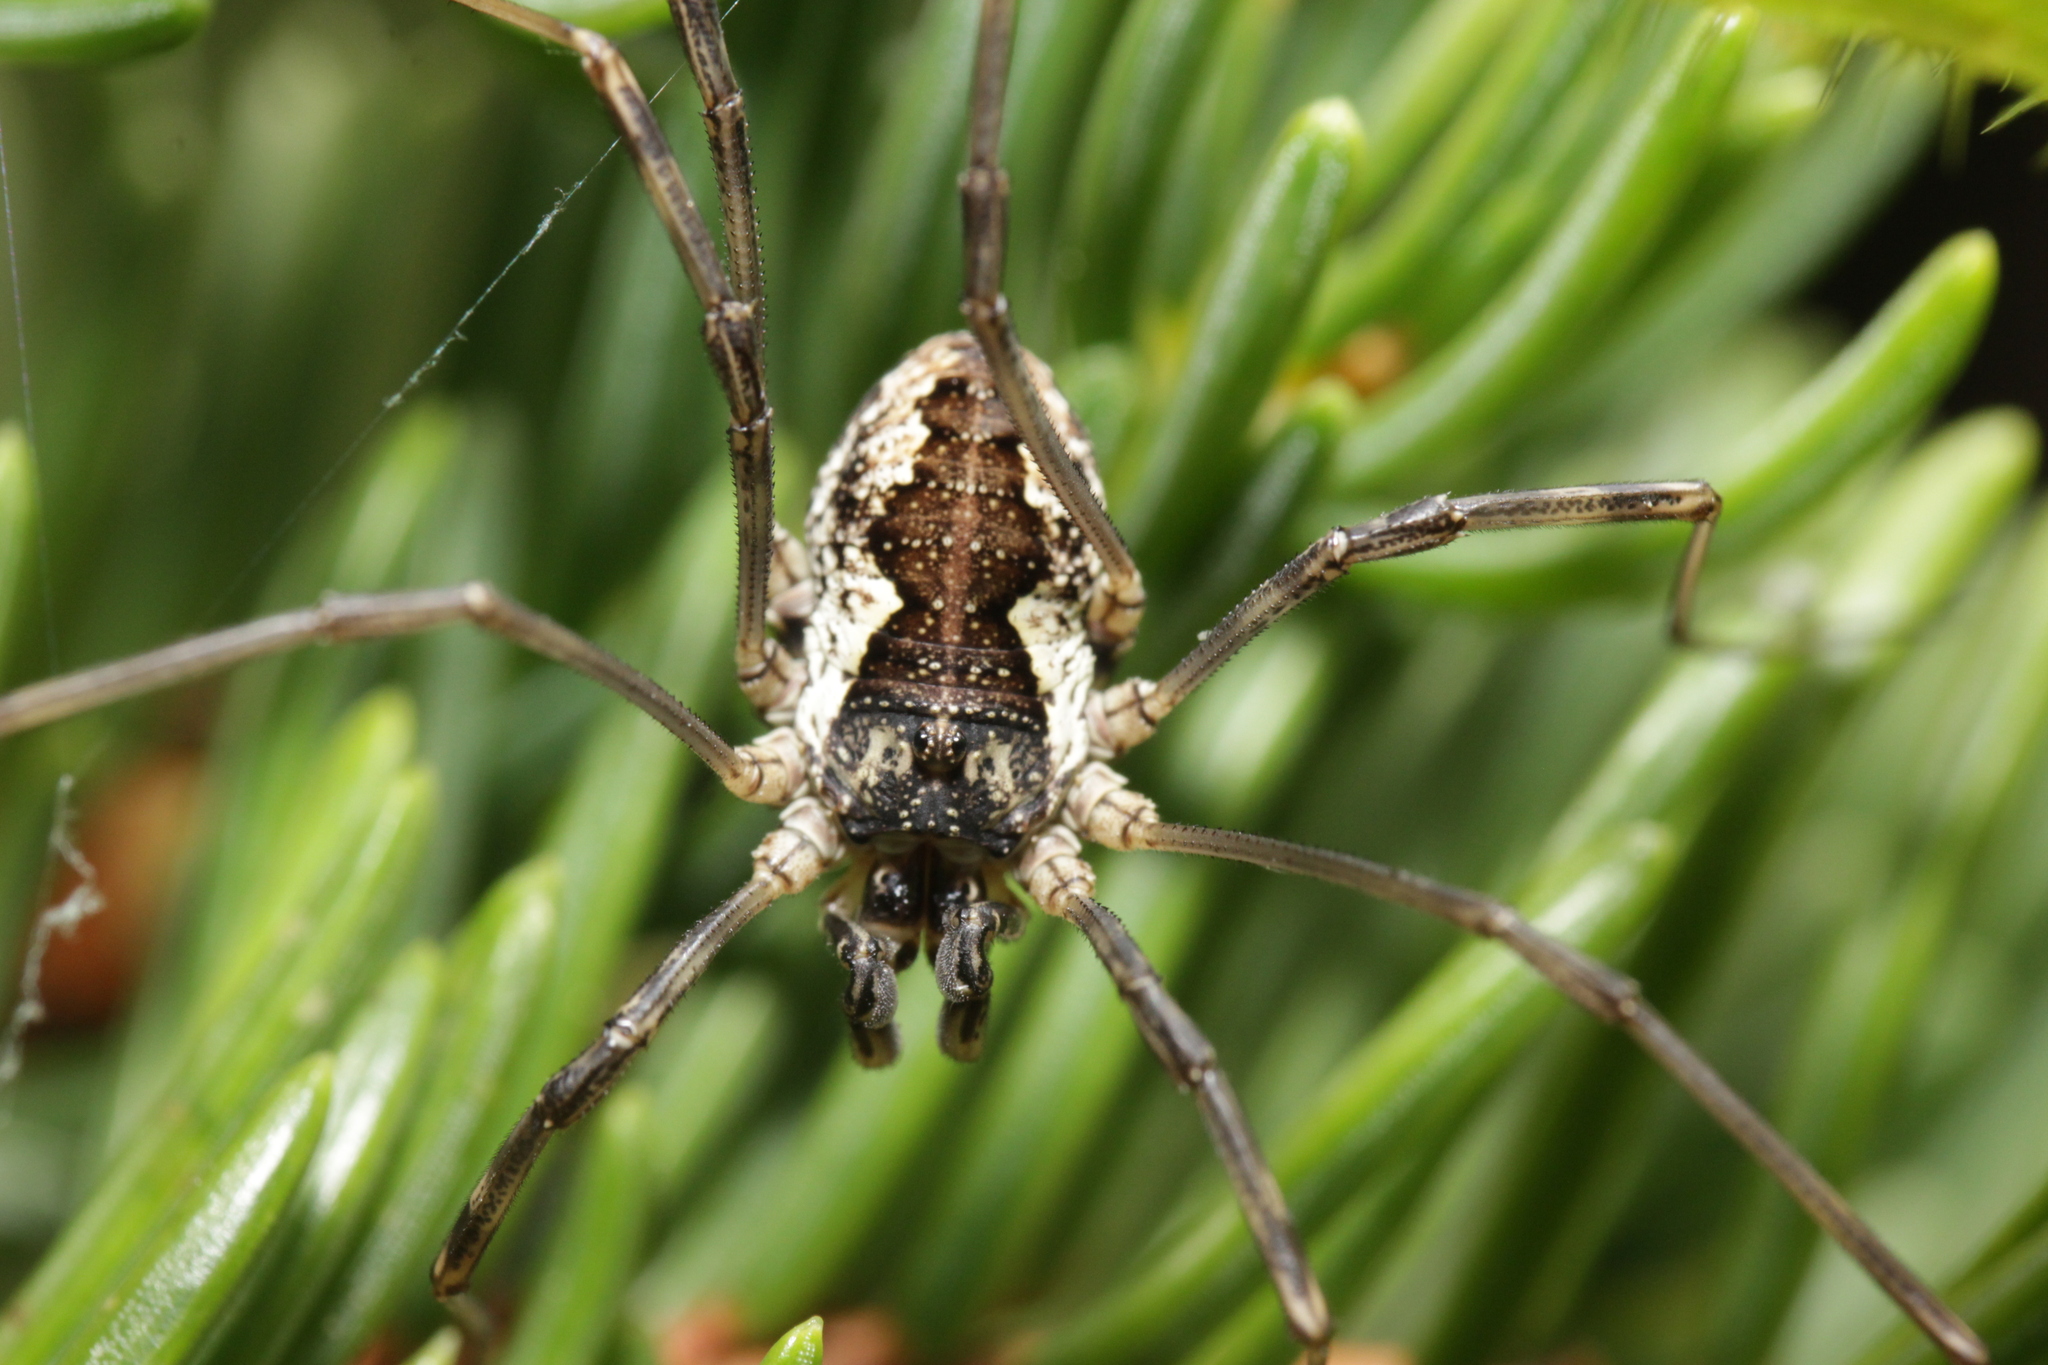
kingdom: Animalia
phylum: Arthropoda
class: Arachnida
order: Opiliones
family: Phalangiidae
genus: Mitopus
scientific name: Mitopus morio
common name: Saddleback harvestman
